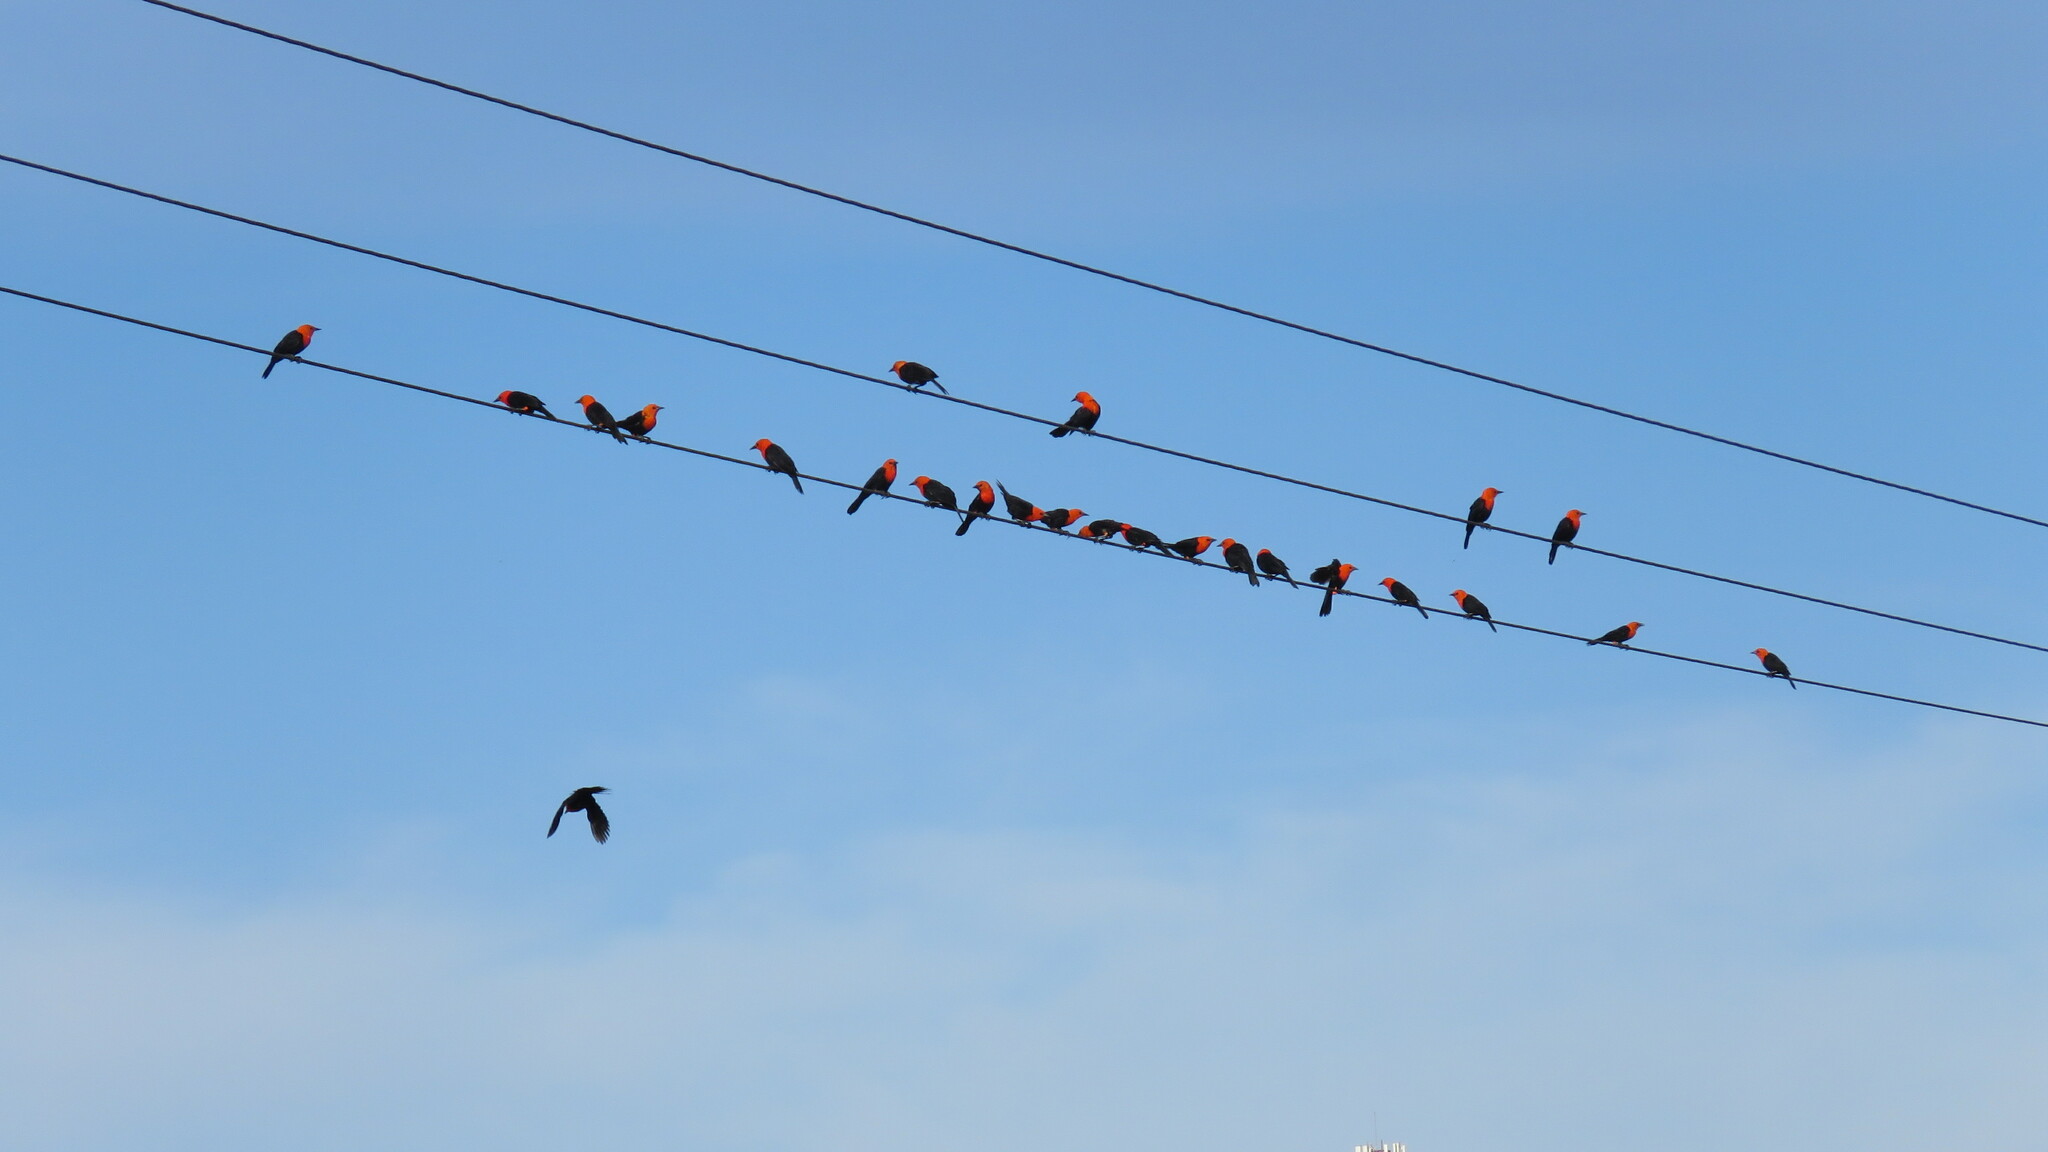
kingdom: Animalia
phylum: Chordata
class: Aves
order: Passeriformes
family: Icteridae
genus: Amblyramphus
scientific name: Amblyramphus holosericeus
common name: Scarlet-headed blackbird
